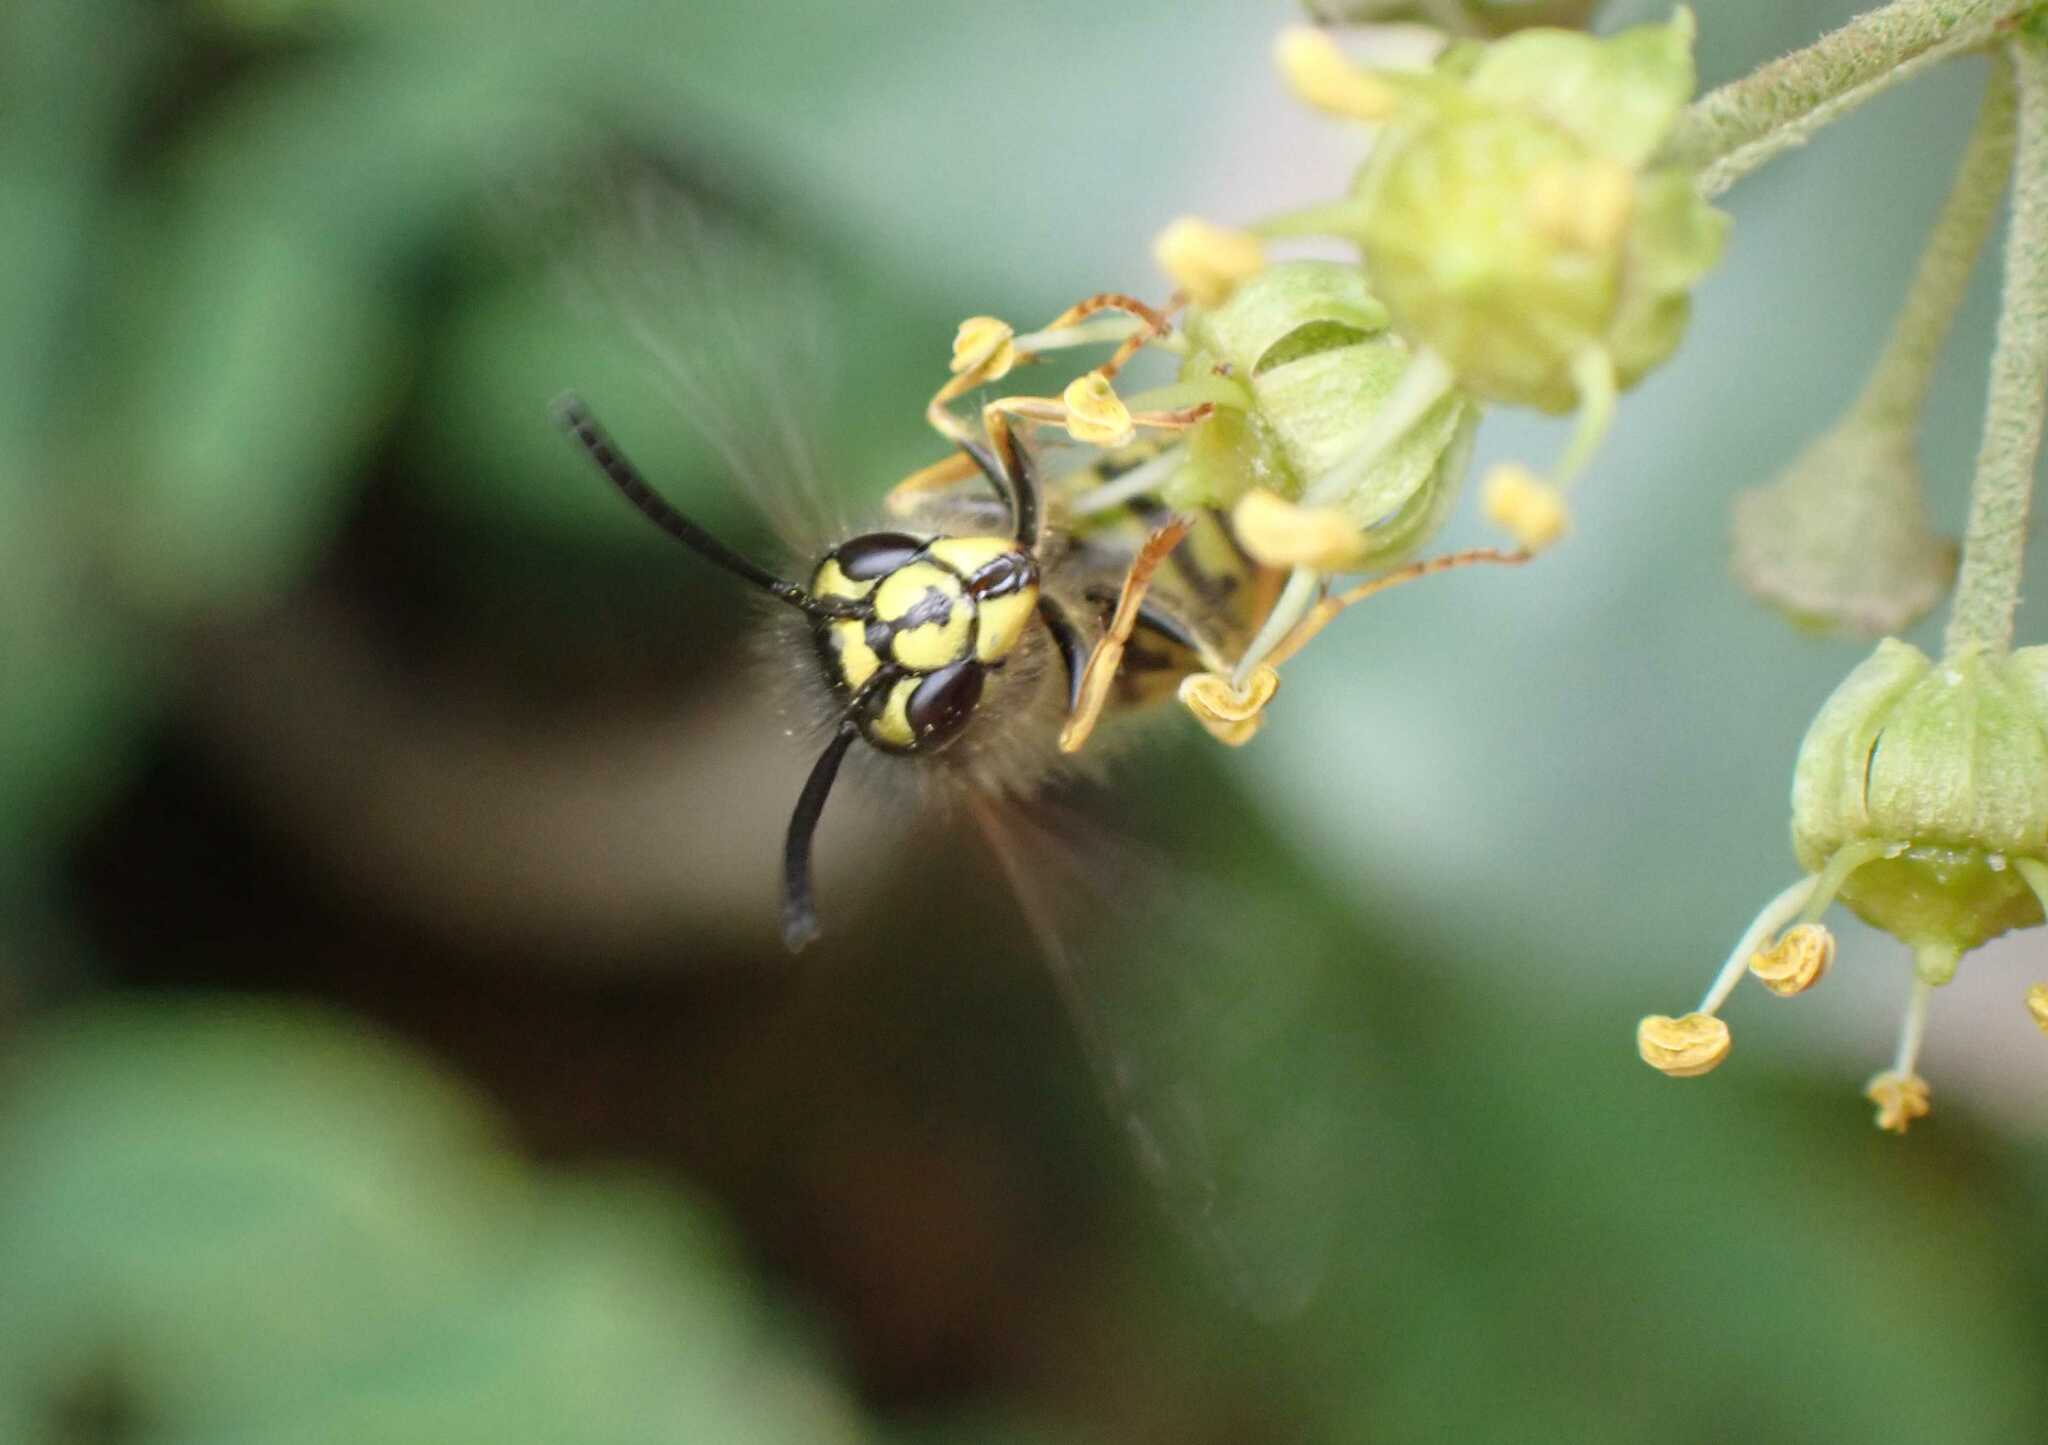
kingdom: Animalia
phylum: Arthropoda
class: Insecta
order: Hymenoptera
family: Vespidae
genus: Vespula
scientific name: Vespula vulgaris
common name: Common wasp
